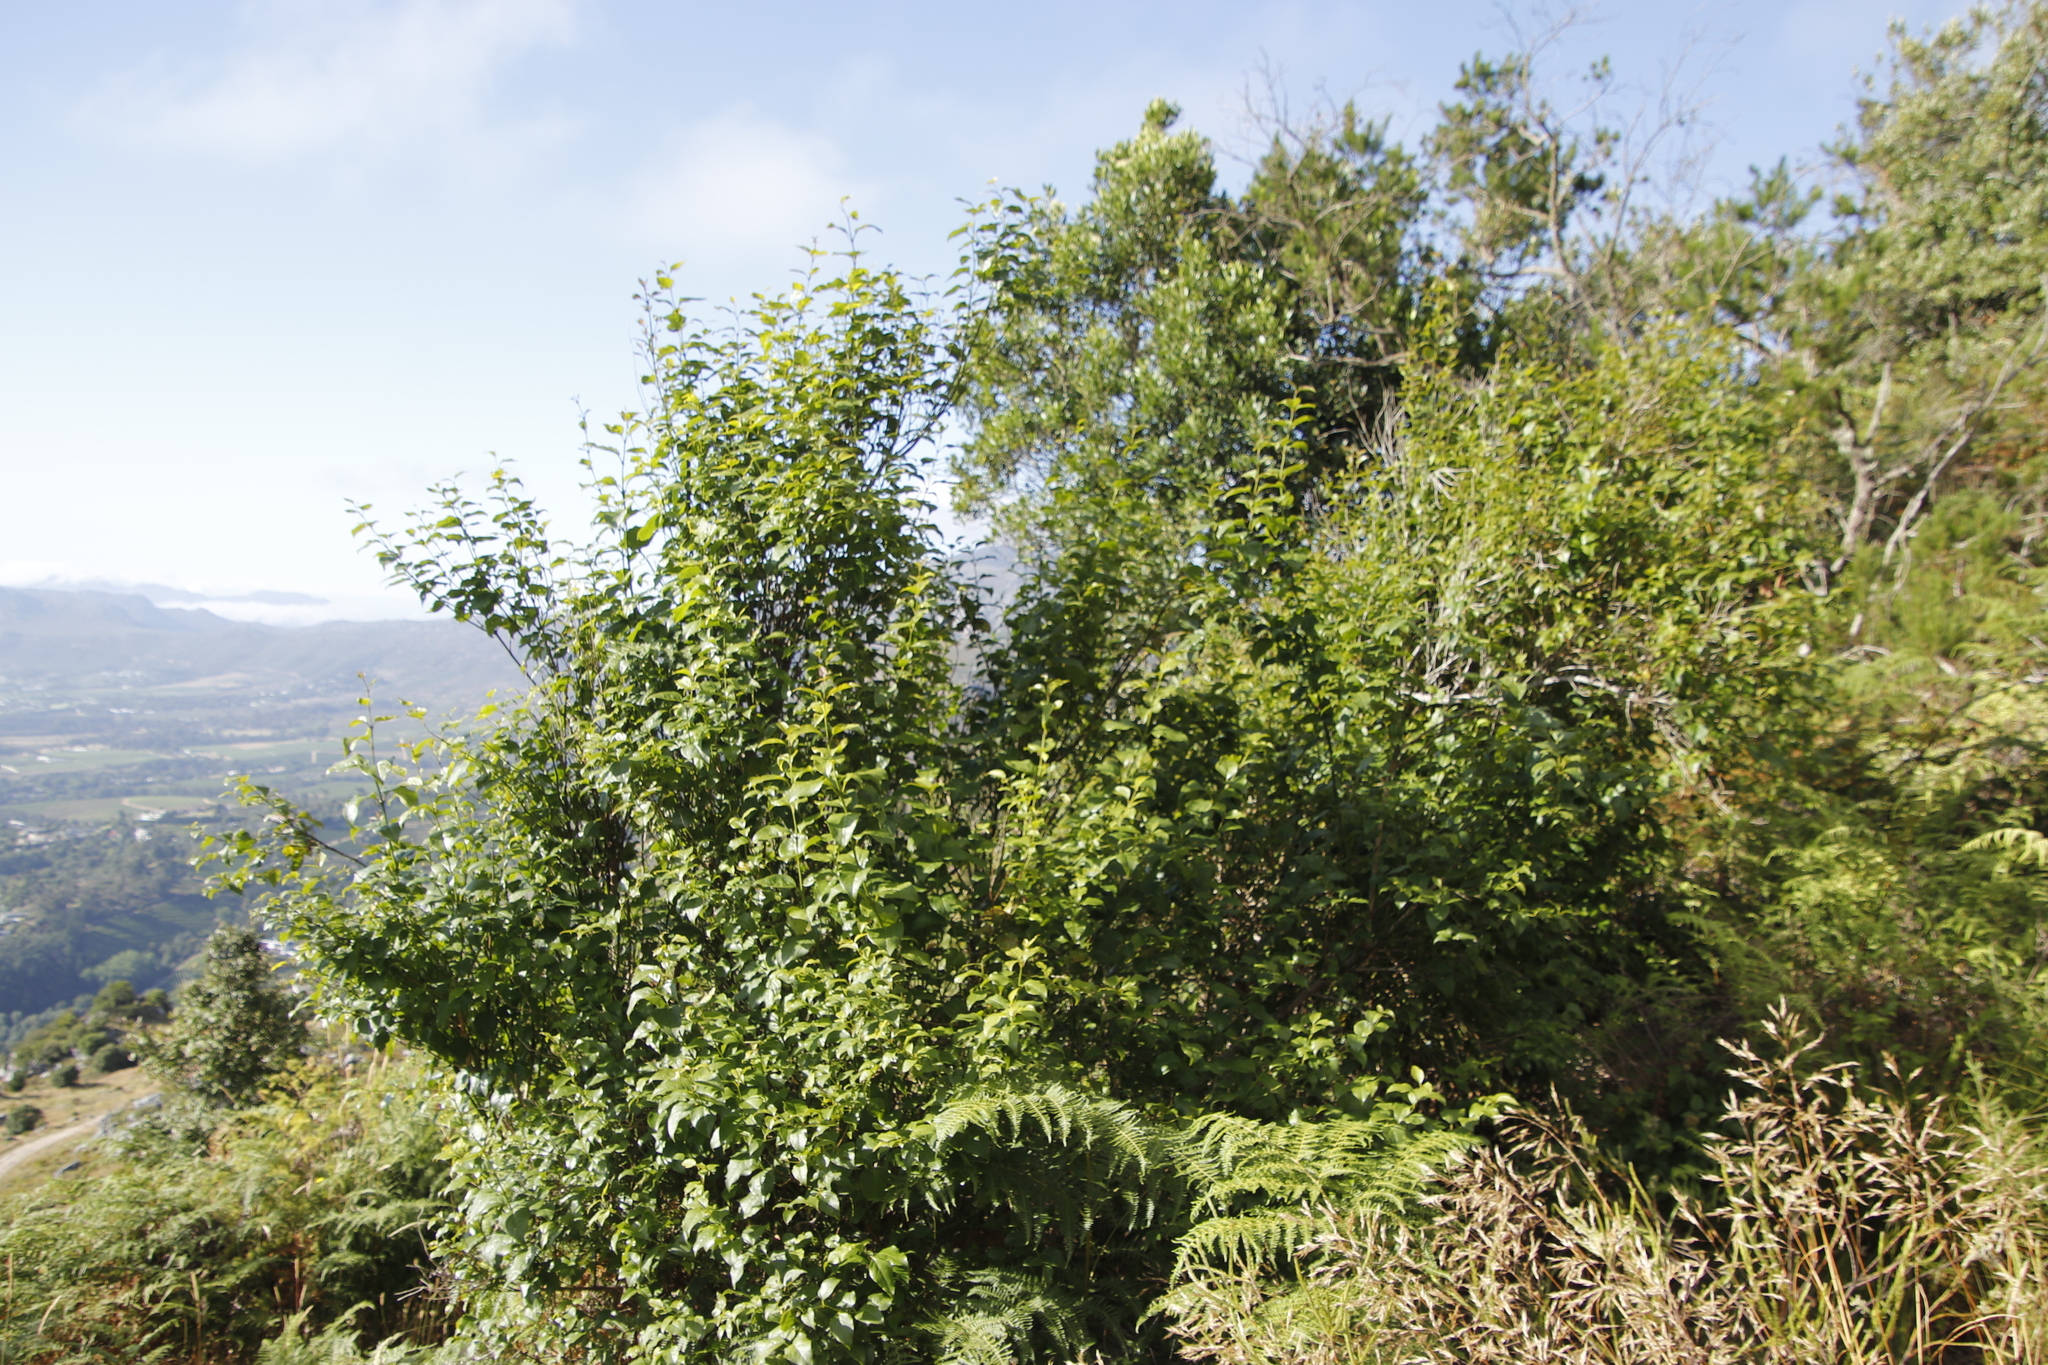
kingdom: Plantae
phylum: Tracheophyta
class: Magnoliopsida
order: Lamiales
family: Stilbaceae
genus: Halleria
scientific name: Halleria lucida
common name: Tree fuschia
